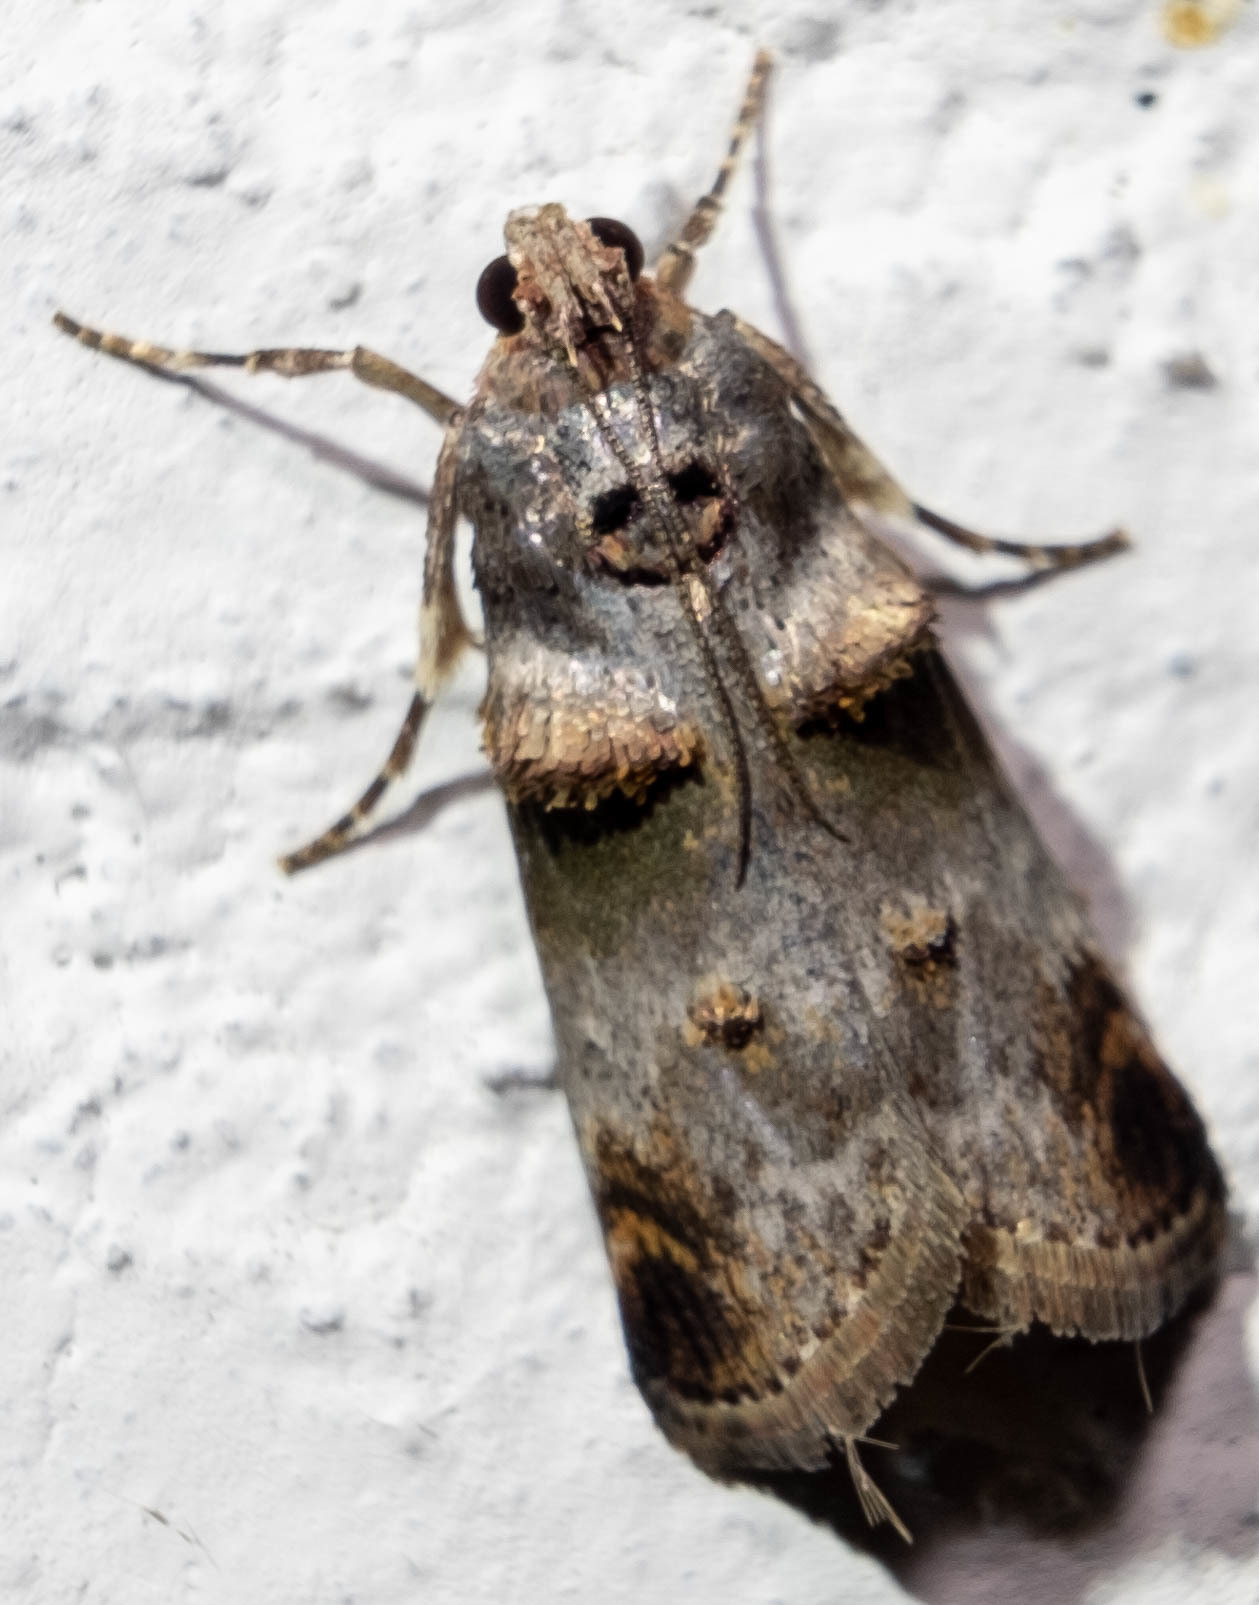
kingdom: Animalia
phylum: Arthropoda
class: Insecta
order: Lepidoptera
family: Pyralidae
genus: Oneida
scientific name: Oneida lunulalis
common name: Orange-tufted oneida moth
